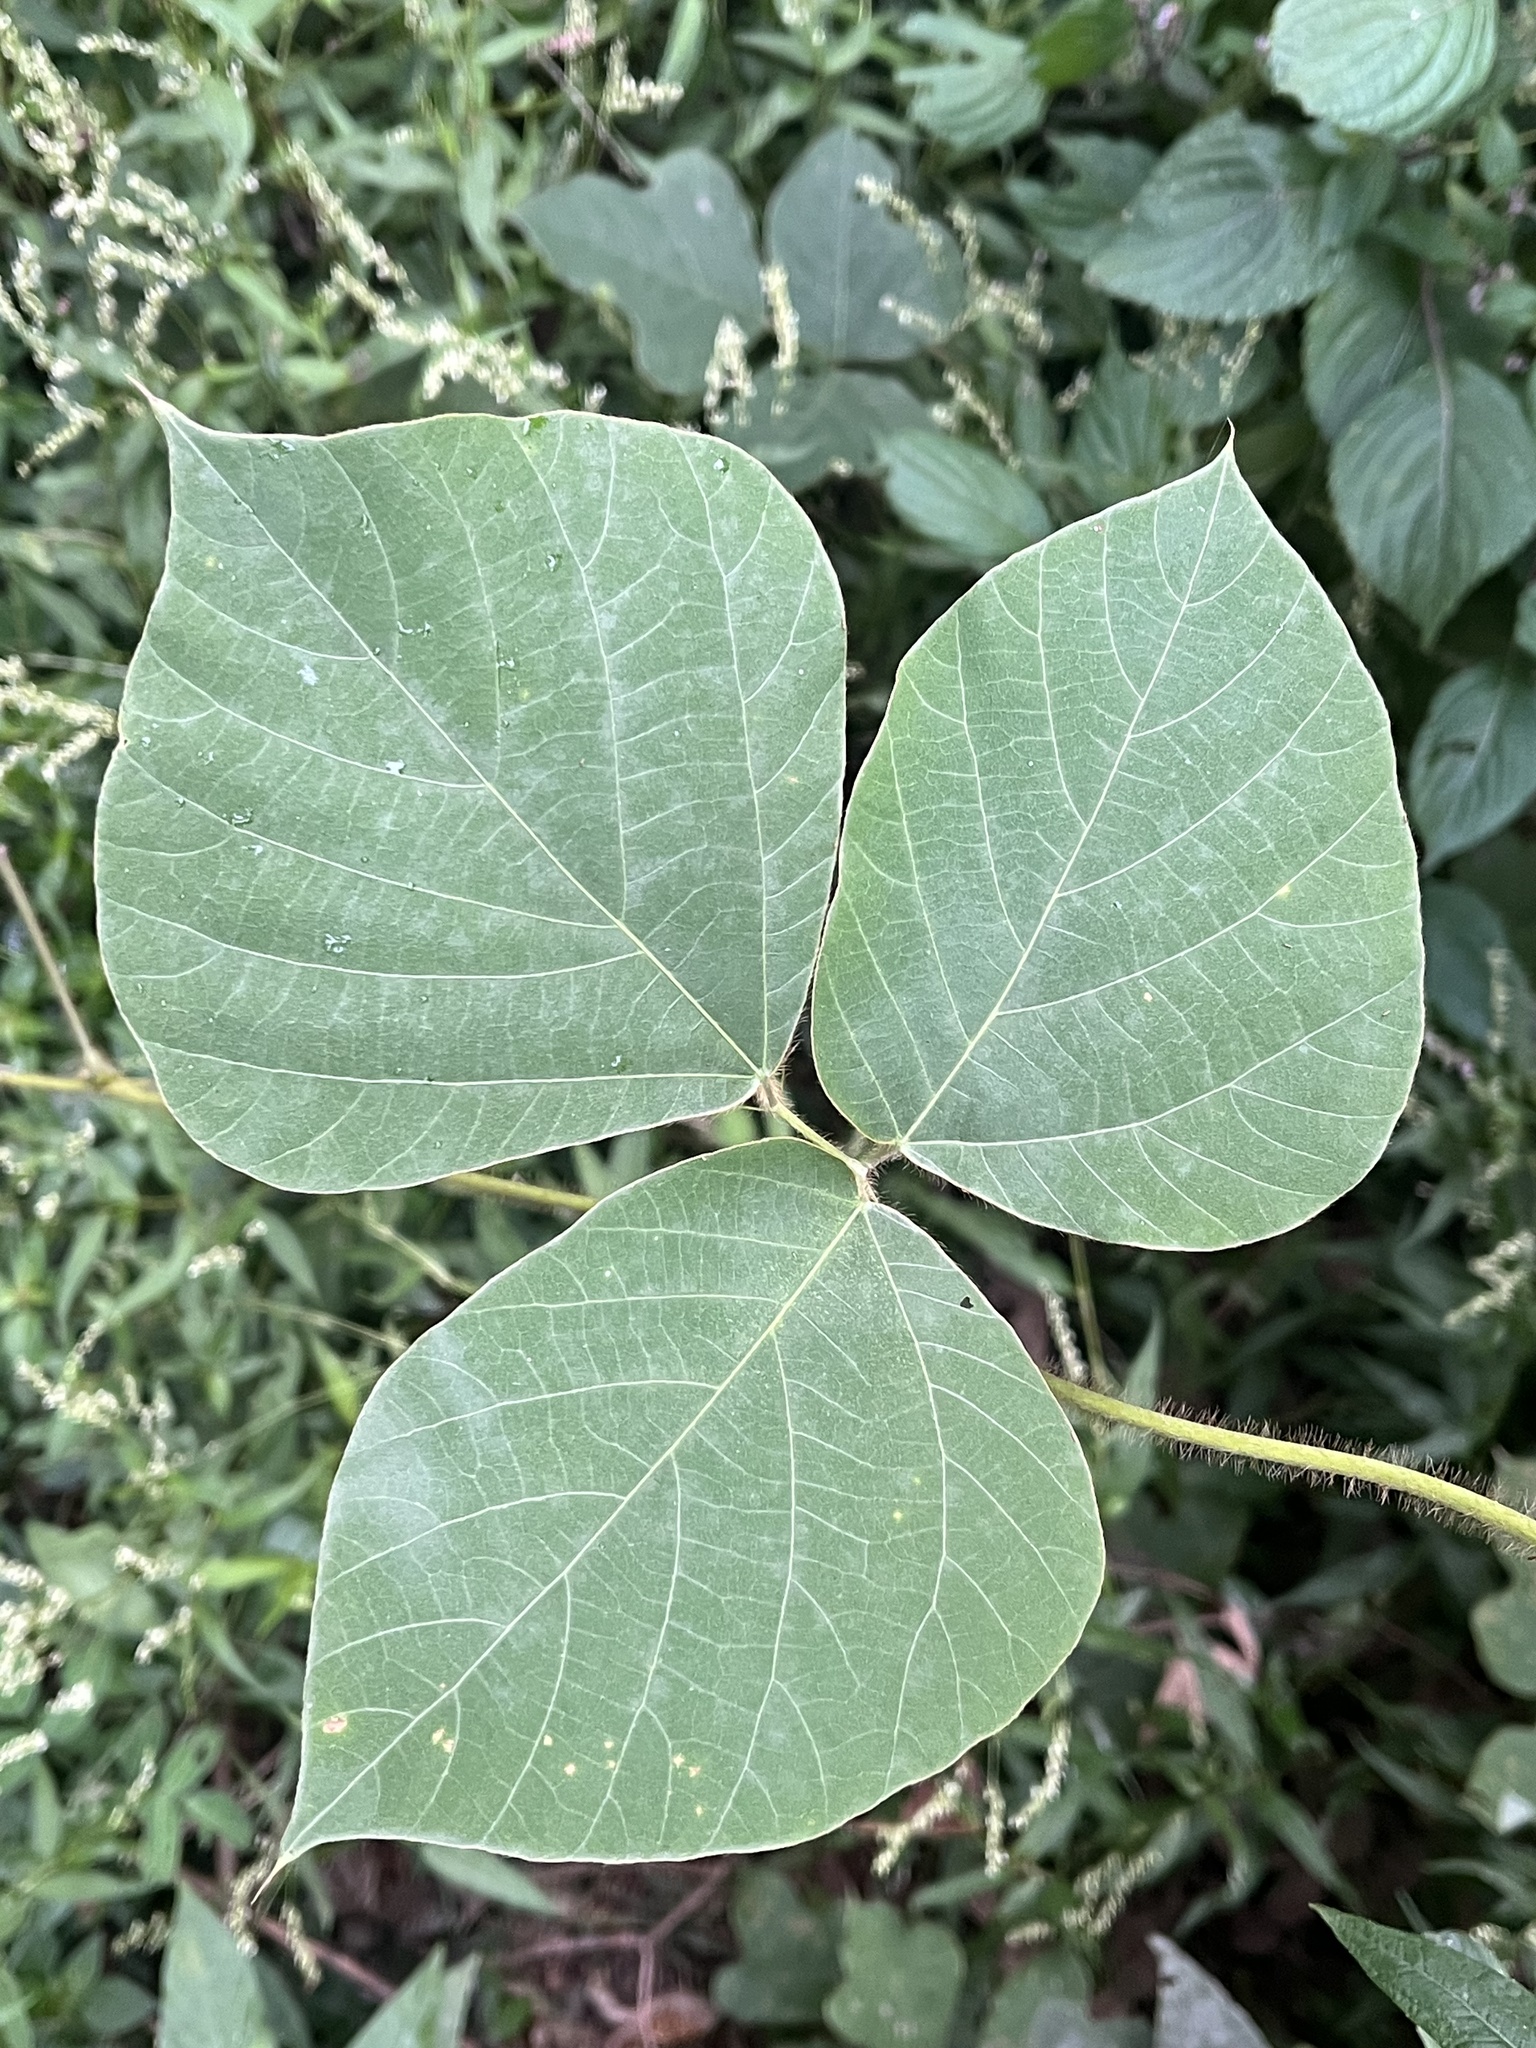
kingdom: Plantae
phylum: Tracheophyta
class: Magnoliopsida
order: Fabales
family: Fabaceae
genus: Pueraria
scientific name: Pueraria montana
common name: Kudzu
